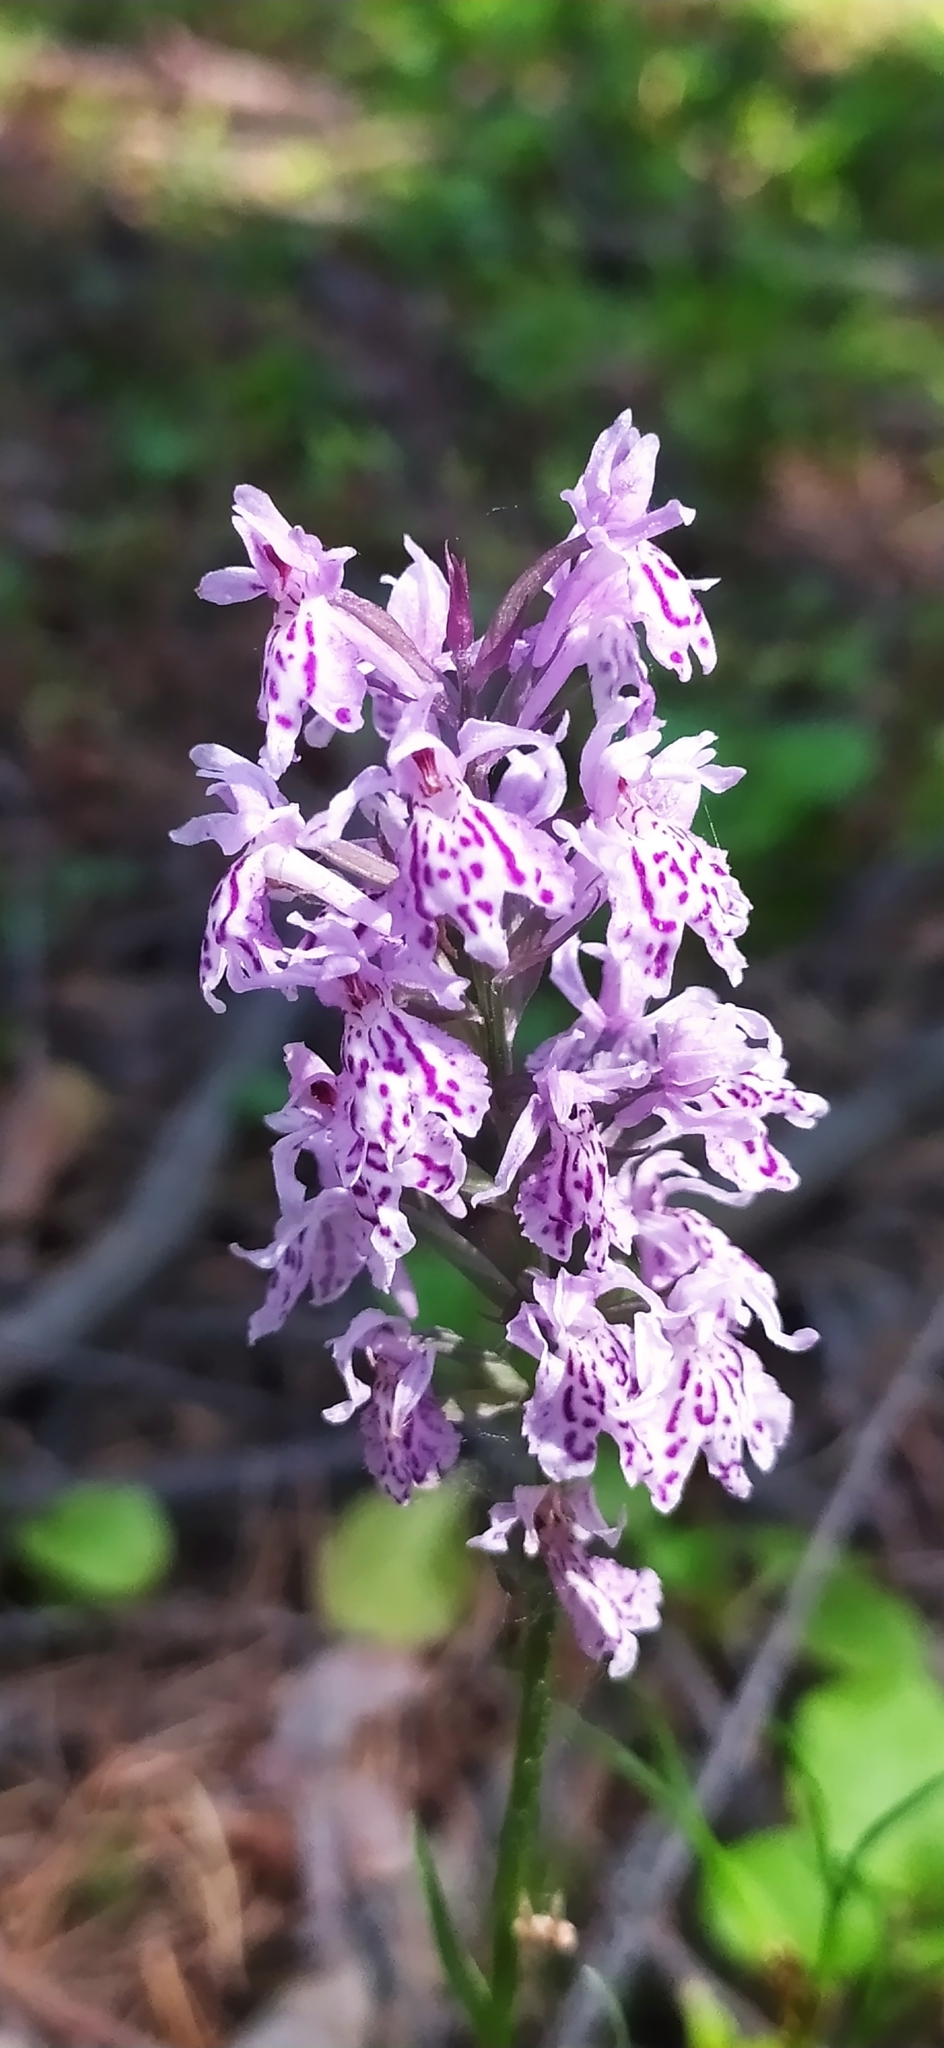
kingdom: Plantae
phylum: Tracheophyta
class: Liliopsida
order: Asparagales
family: Orchidaceae
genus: Dactylorhiza
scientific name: Dactylorhiza maculata
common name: Heath spotted-orchid
